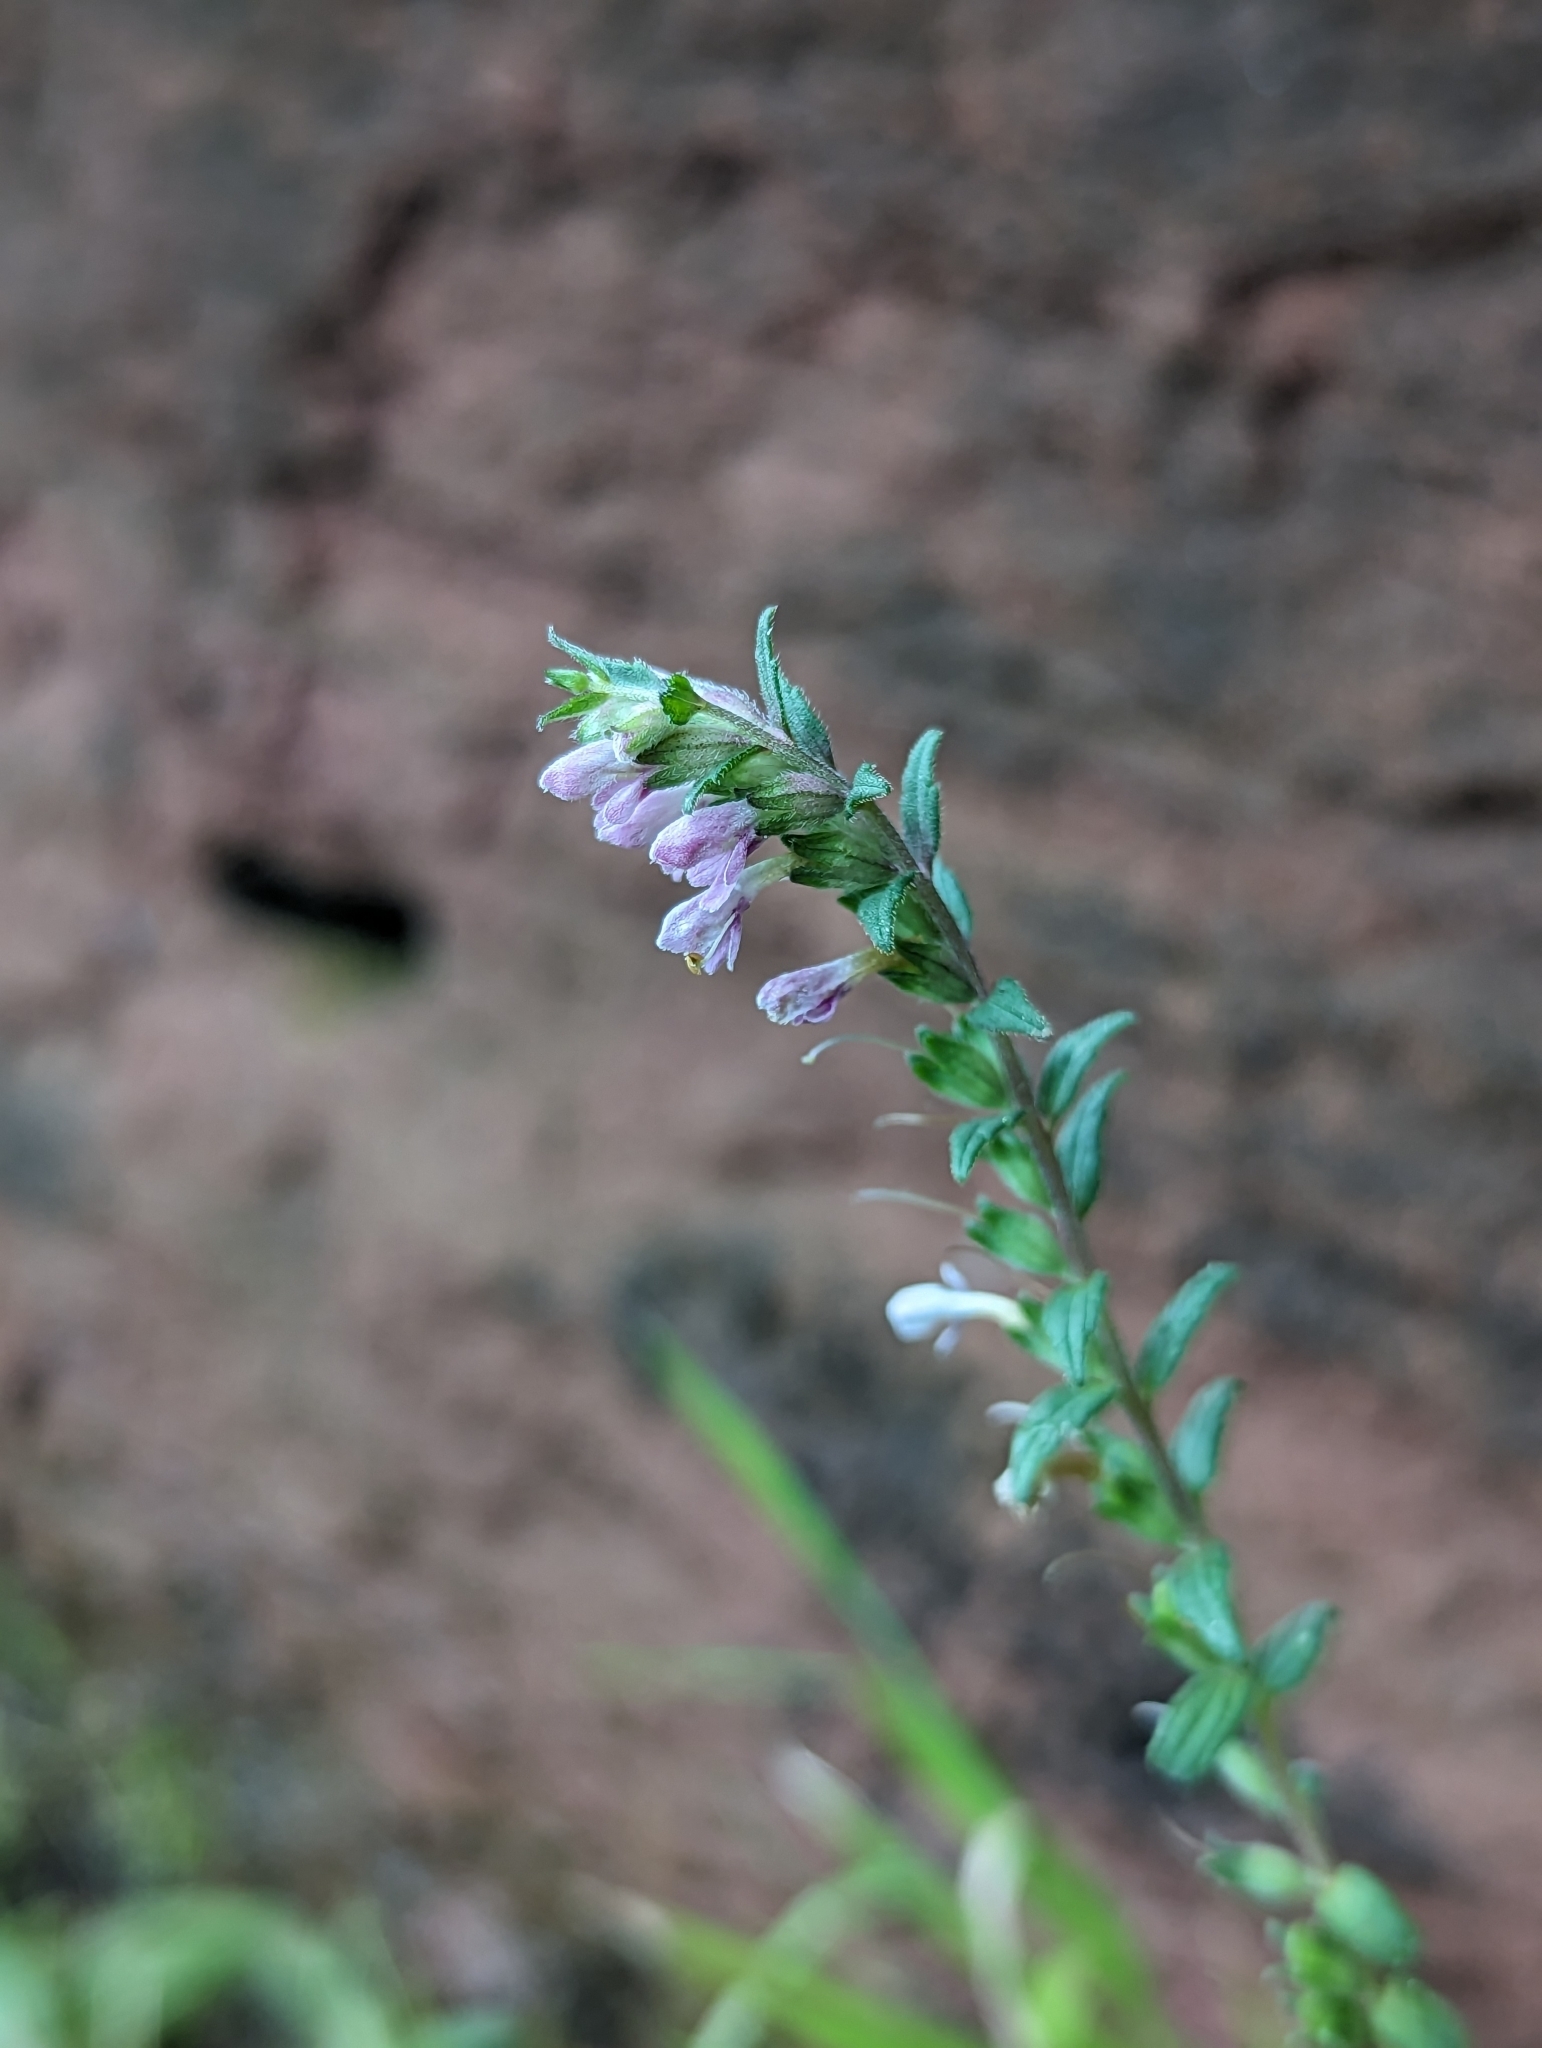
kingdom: Plantae
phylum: Tracheophyta
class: Magnoliopsida
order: Lamiales
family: Orobanchaceae
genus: Odontites
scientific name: Odontites vulgaris
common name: Broomrape
